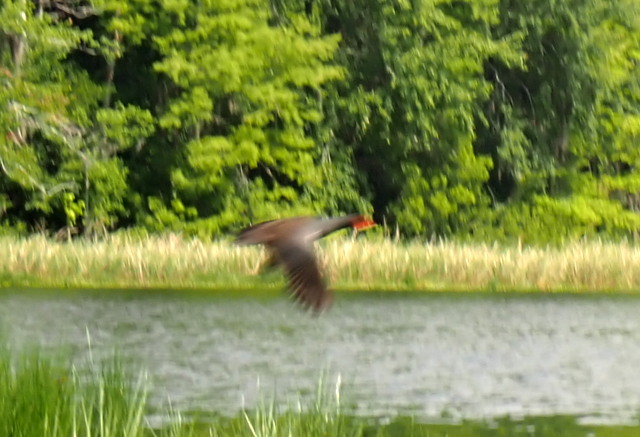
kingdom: Animalia
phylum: Chordata
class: Aves
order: Gruiformes
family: Rallidae
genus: Gallinula
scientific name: Gallinula chloropus
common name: Common moorhen
